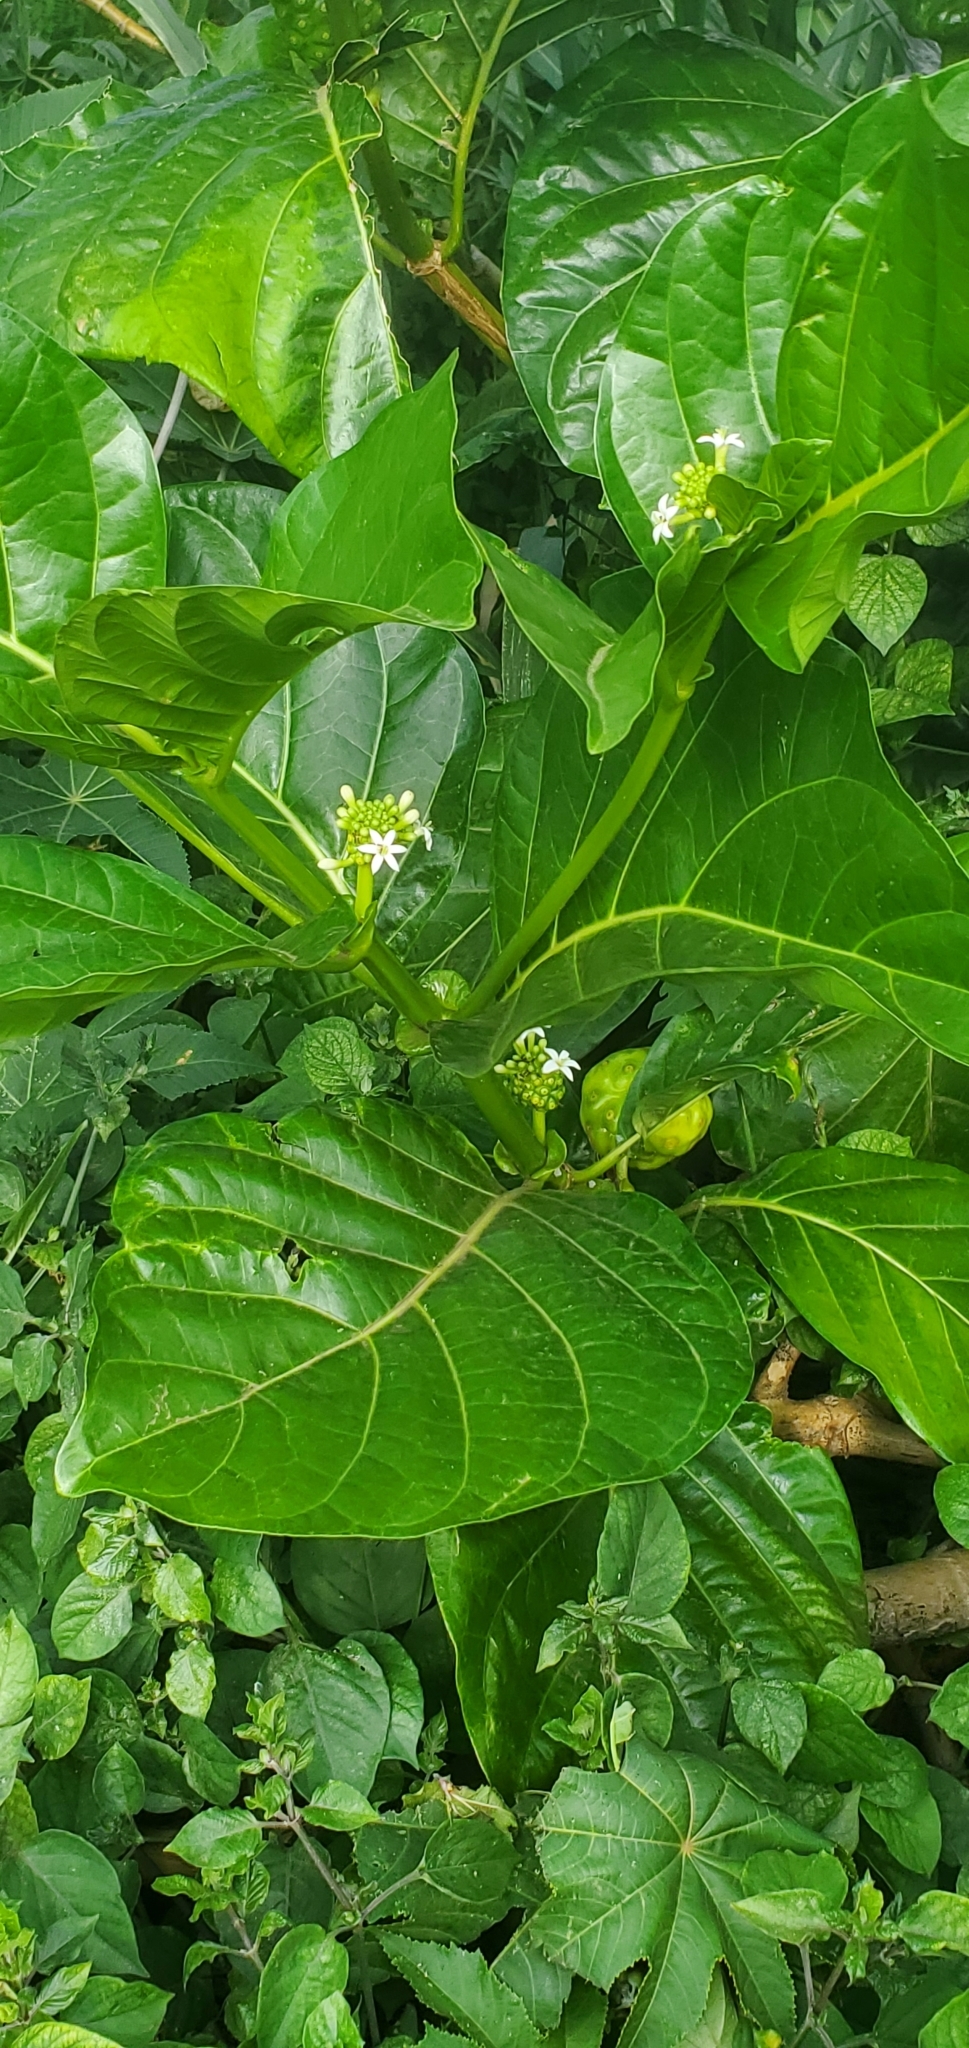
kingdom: Plantae
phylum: Tracheophyta
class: Magnoliopsida
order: Gentianales
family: Rubiaceae
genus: Morinda
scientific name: Morinda citrifolia
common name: Indian-mulberry
